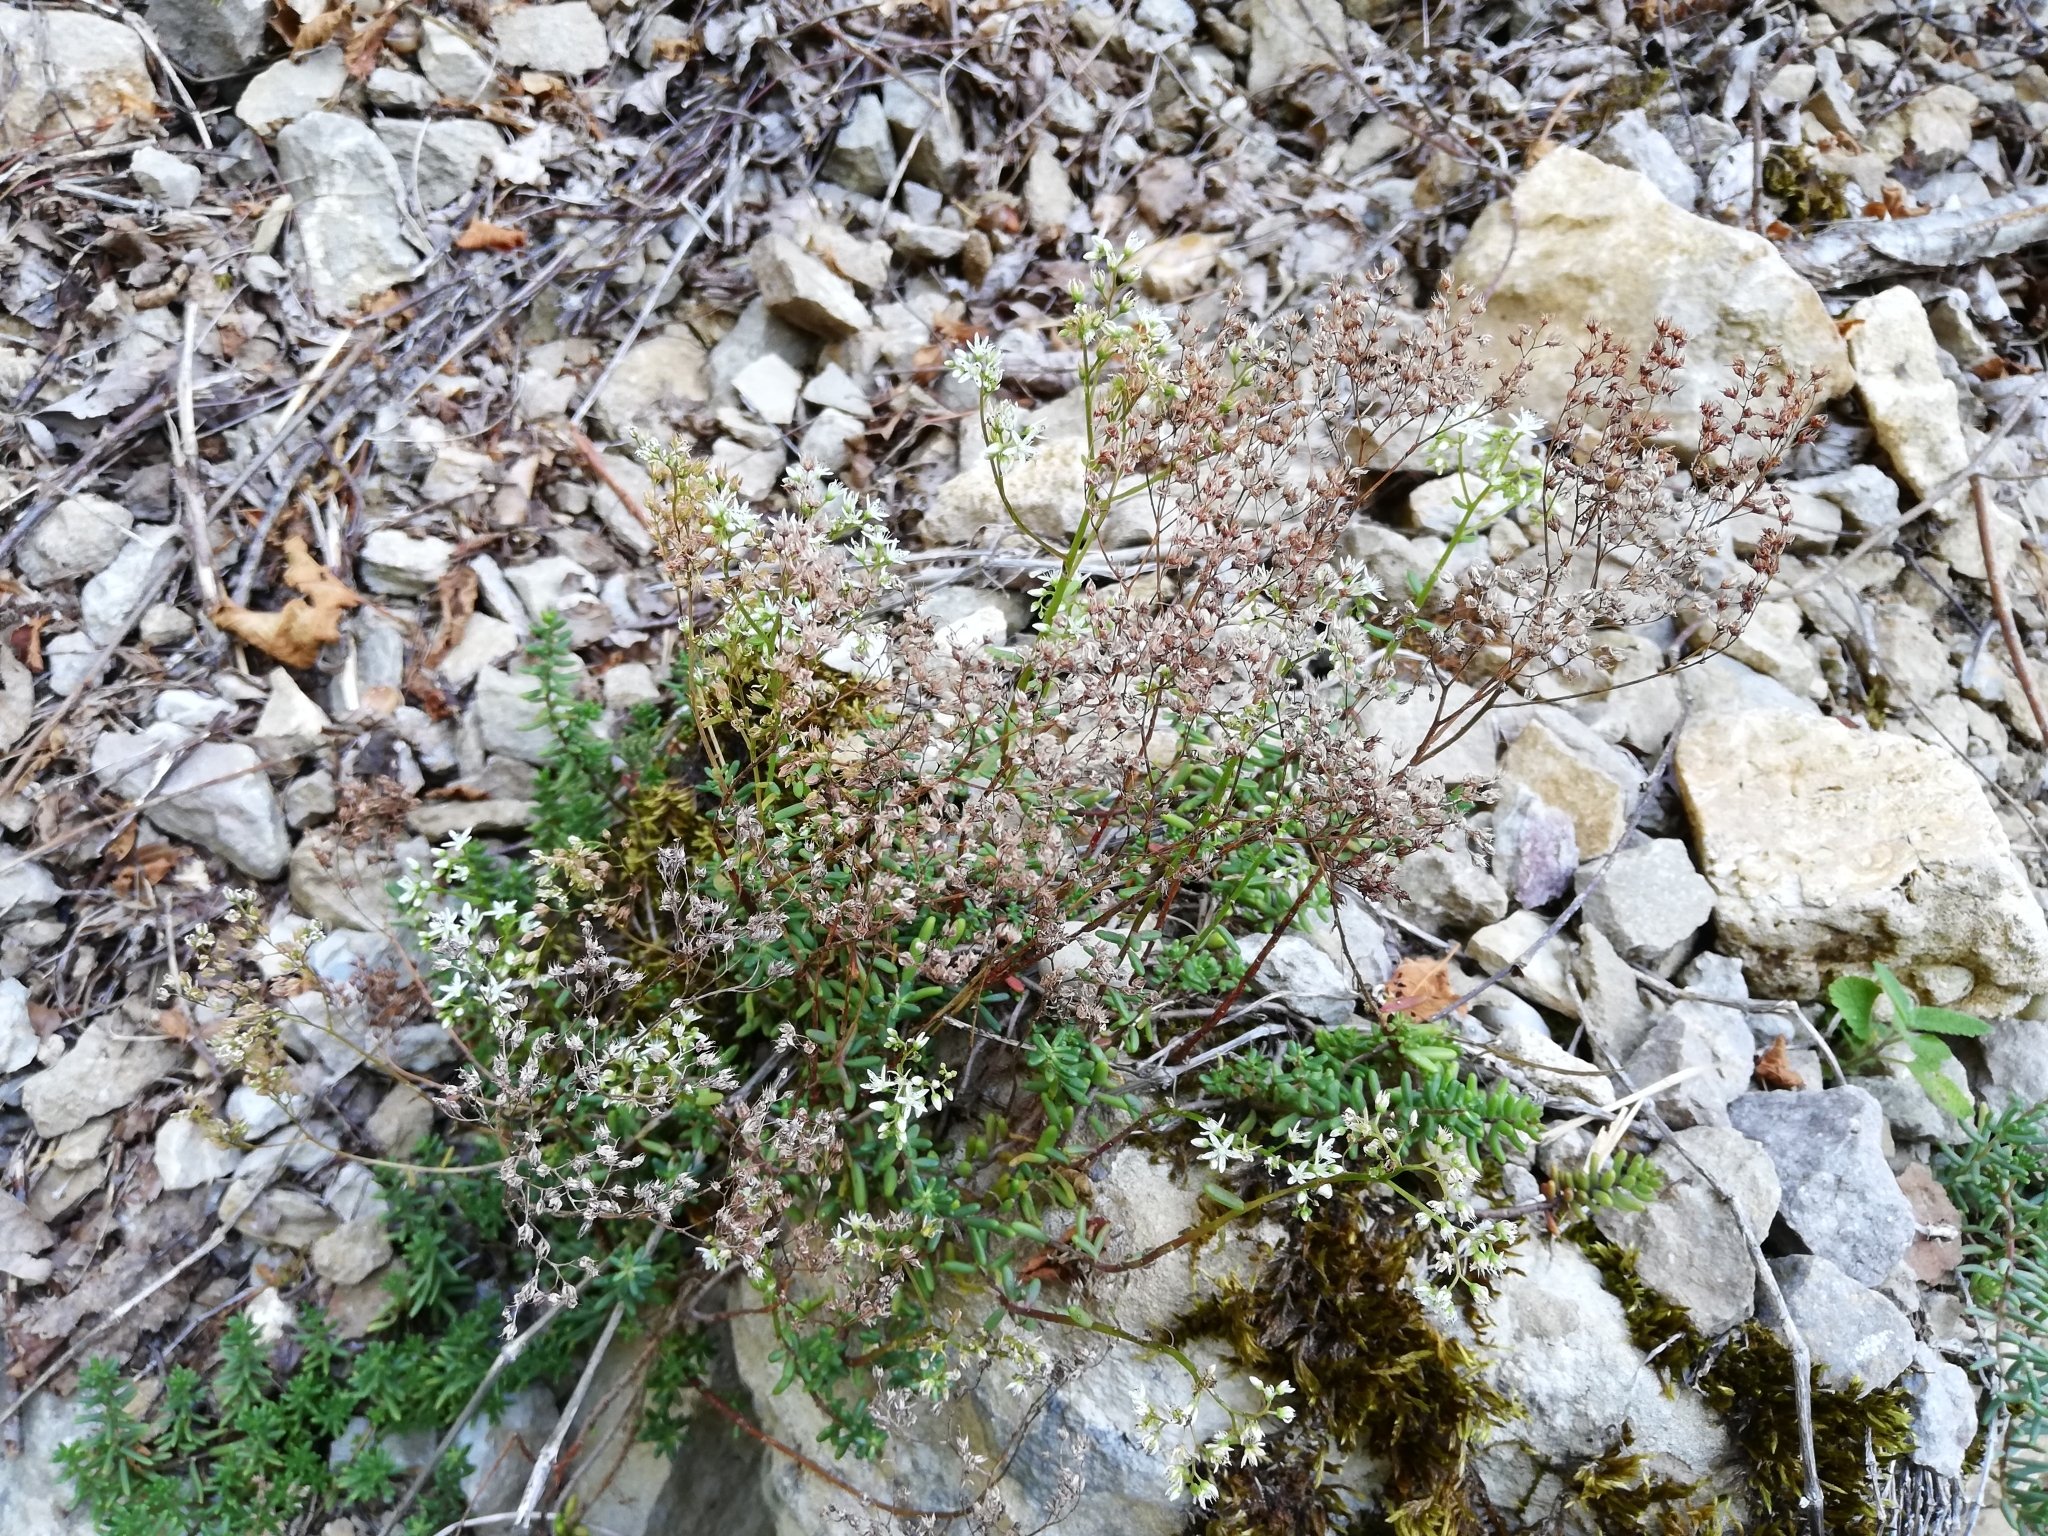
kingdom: Plantae
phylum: Tracheophyta
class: Magnoliopsida
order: Saxifragales
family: Crassulaceae
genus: Sedum
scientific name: Sedum album
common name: White stonecrop
